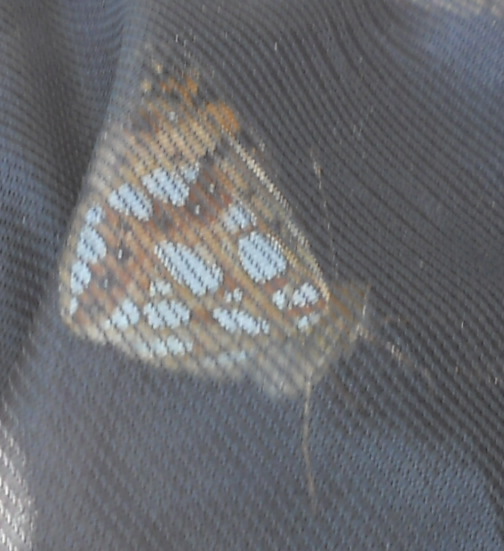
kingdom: Animalia
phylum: Arthropoda
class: Insecta
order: Lepidoptera
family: Nymphalidae
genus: Issoria
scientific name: Issoria lathonia
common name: Queen of spain fritillary
